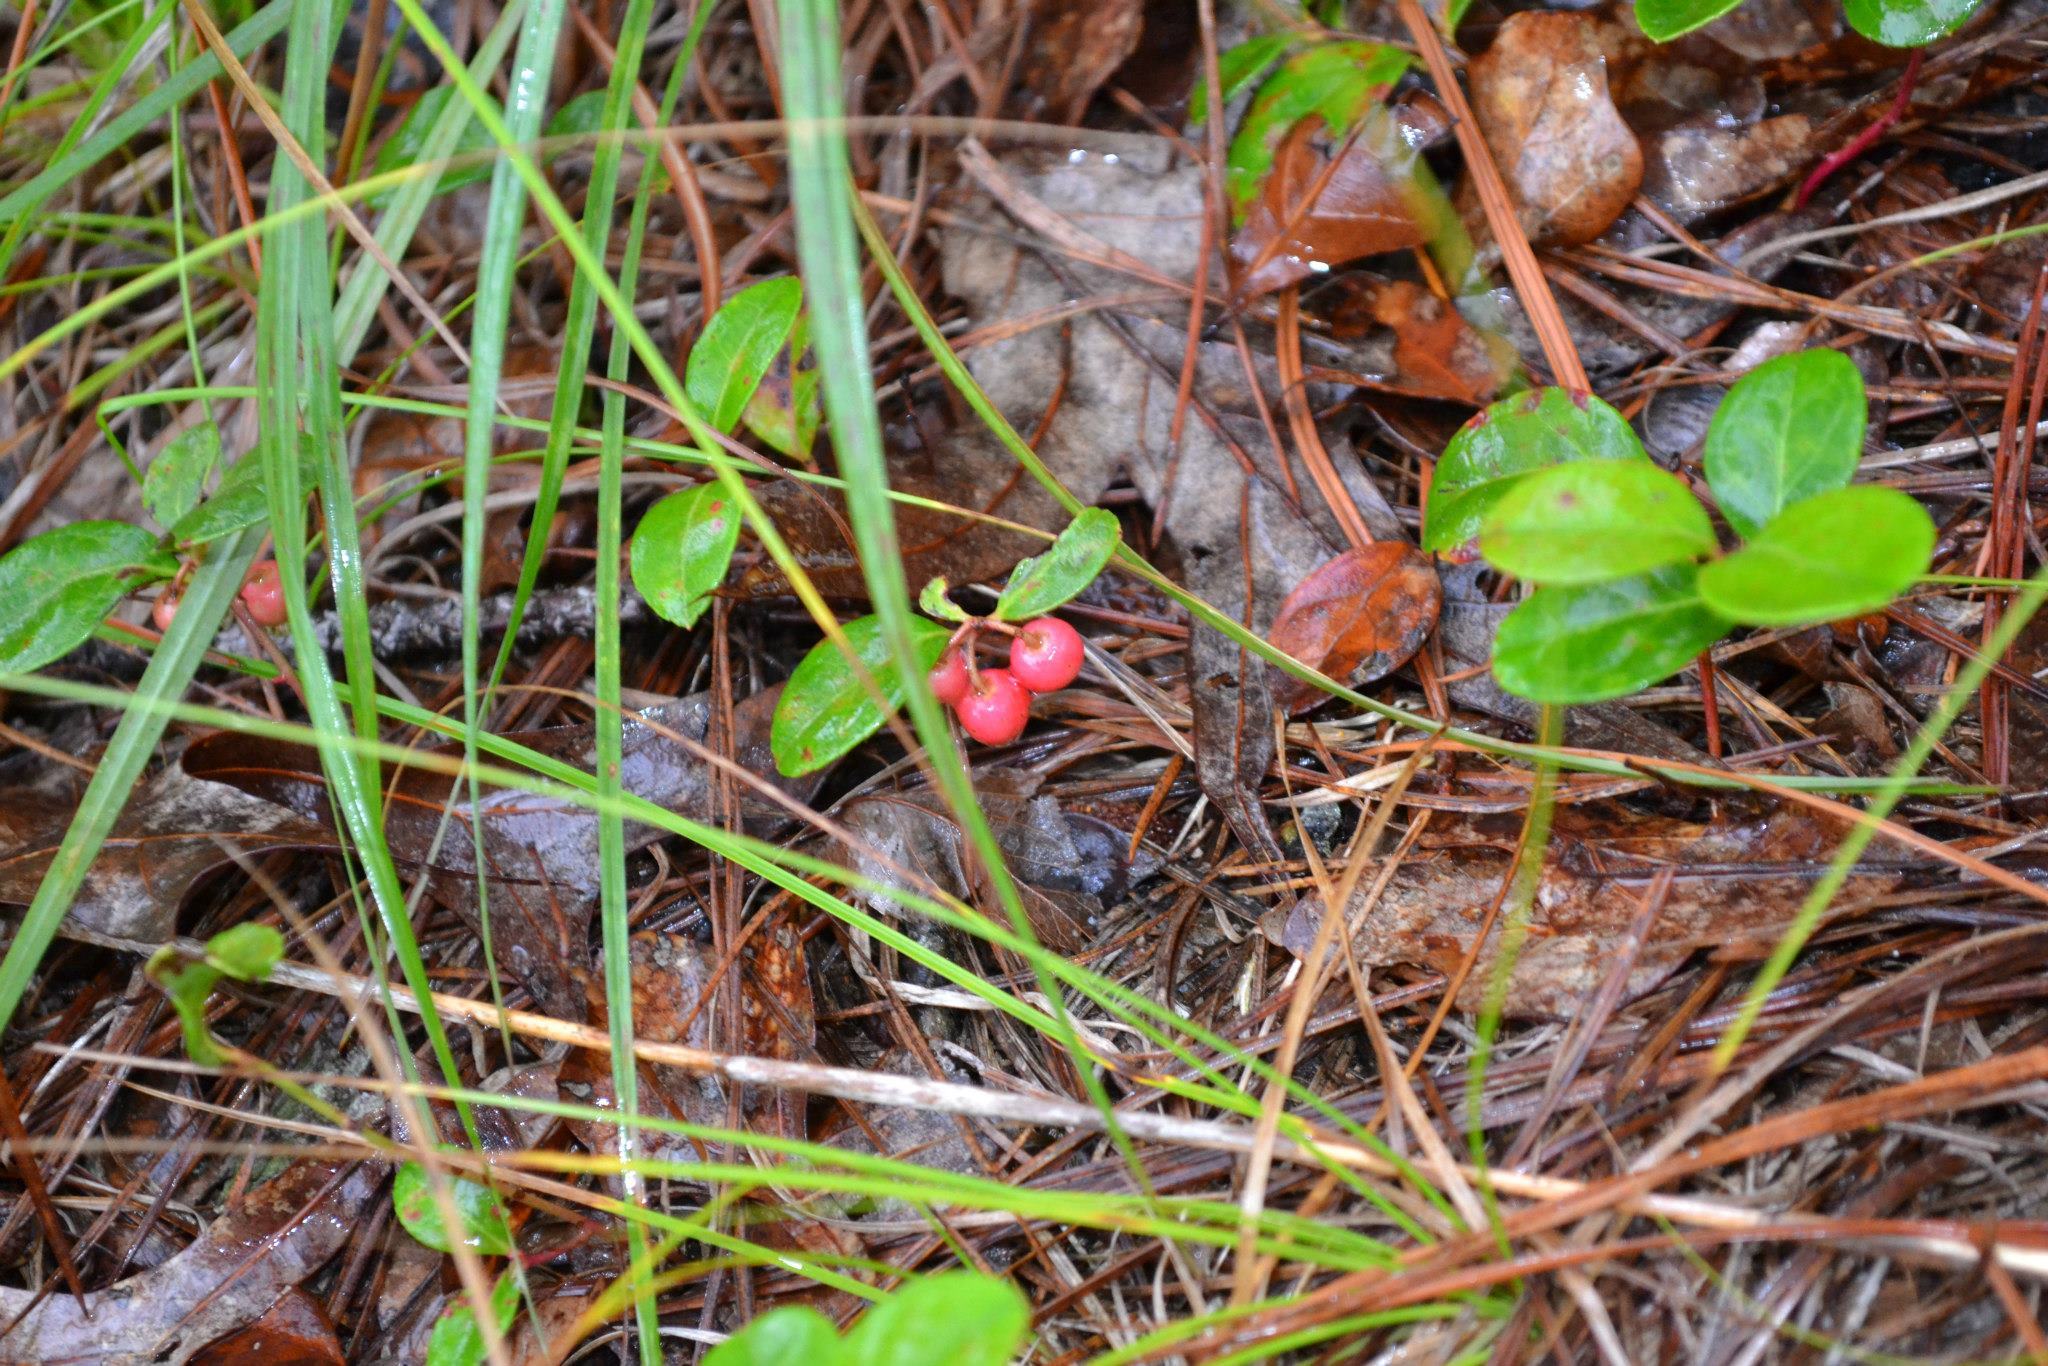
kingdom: Plantae
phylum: Tracheophyta
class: Magnoliopsida
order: Ericales
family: Ericaceae
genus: Gaultheria
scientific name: Gaultheria procumbens
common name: Checkerberry
